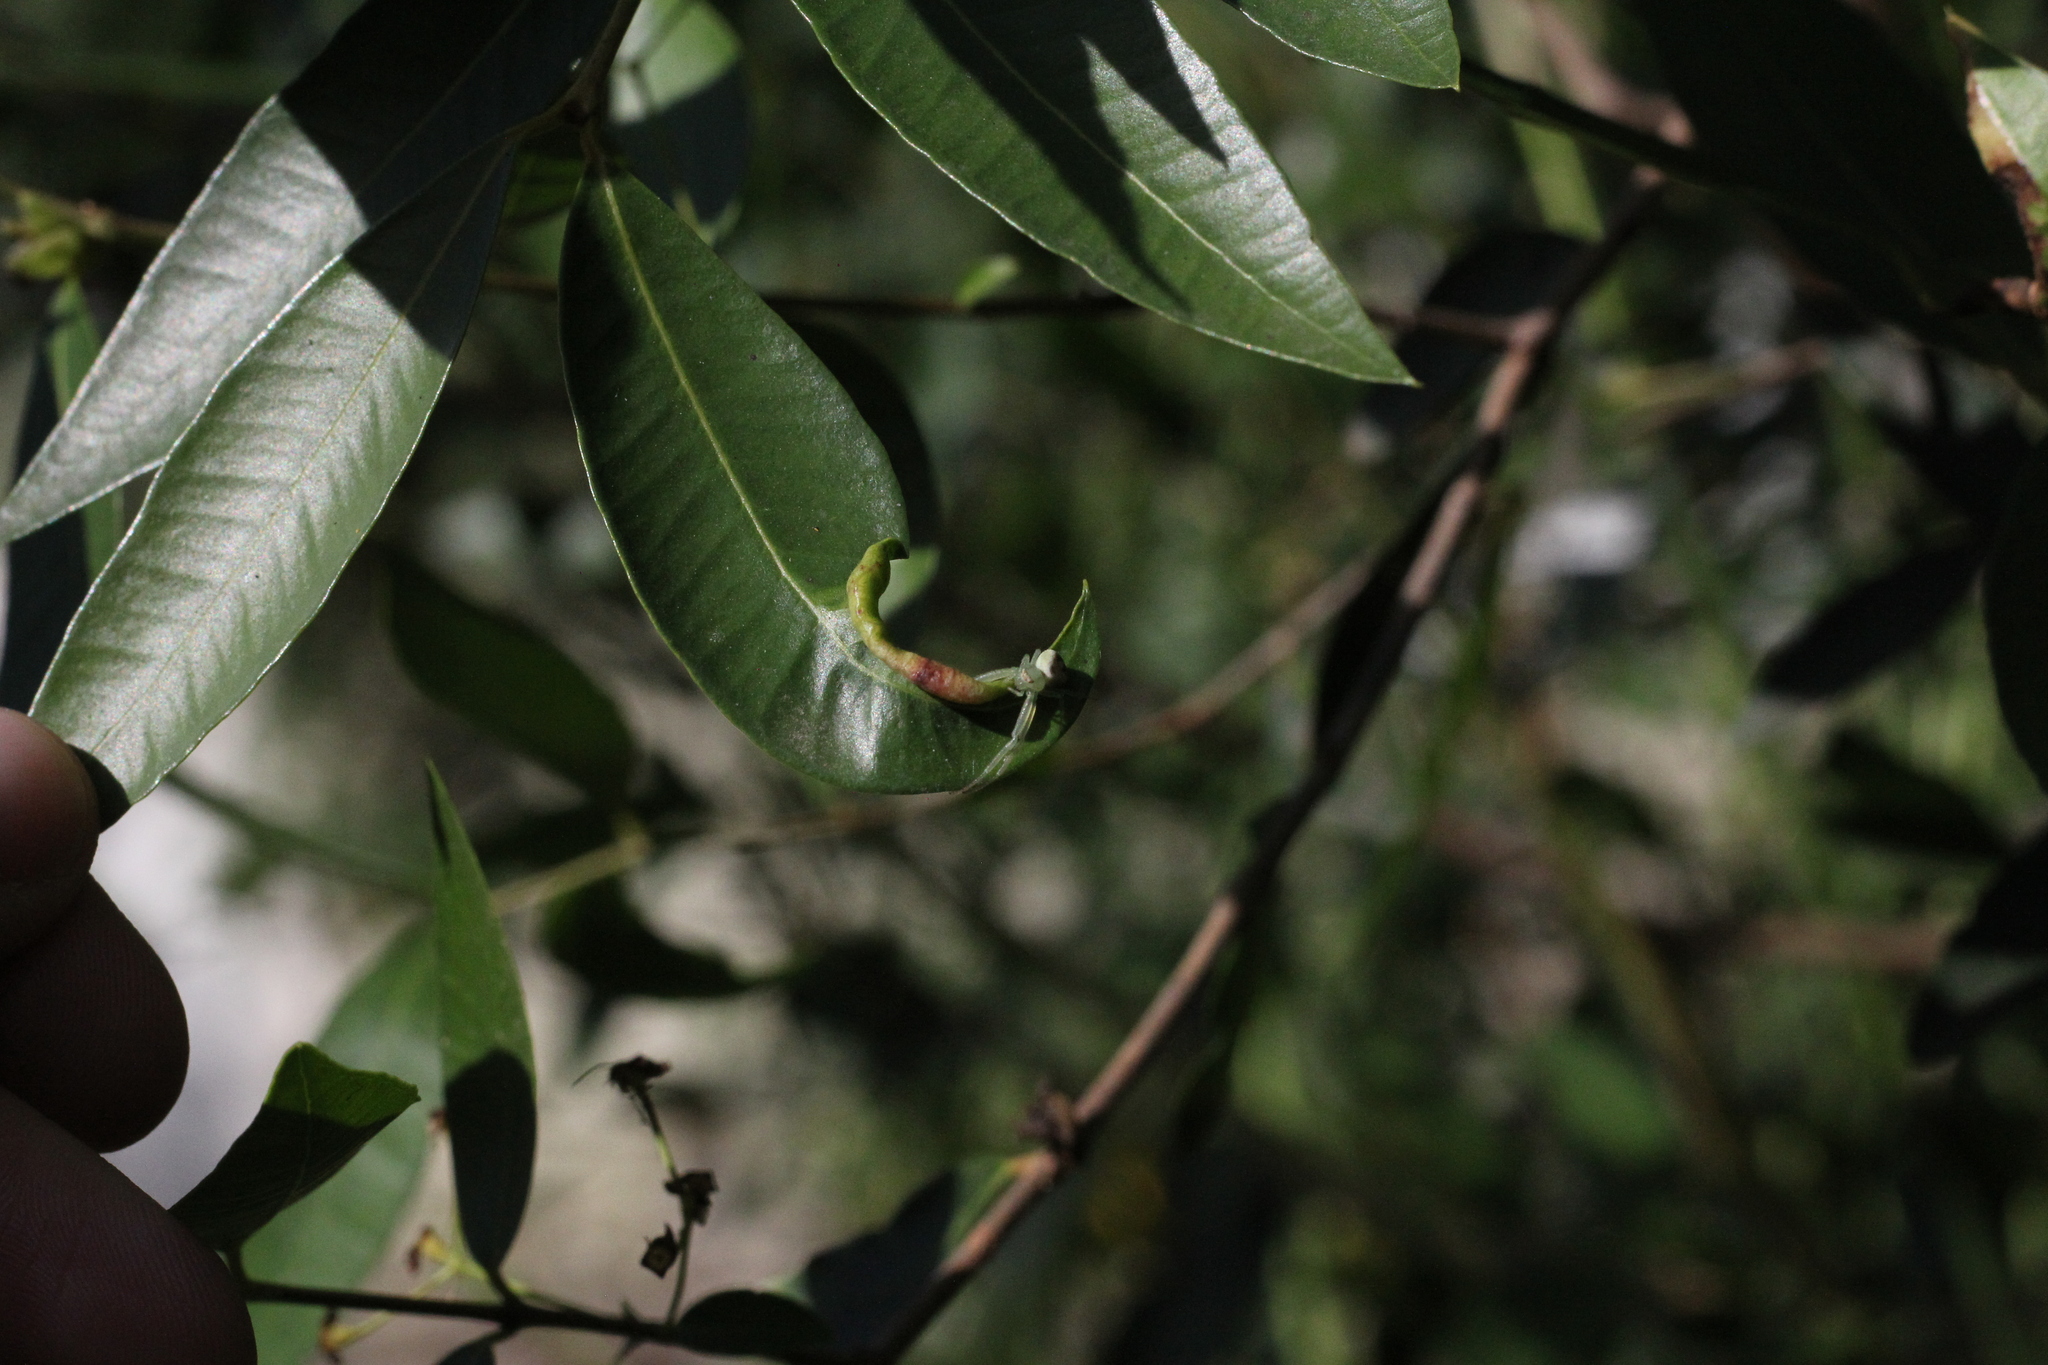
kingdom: Animalia
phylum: Arthropoda
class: Arachnida
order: Araneae
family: Thomisidae
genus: Misumenops
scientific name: Misumenops
